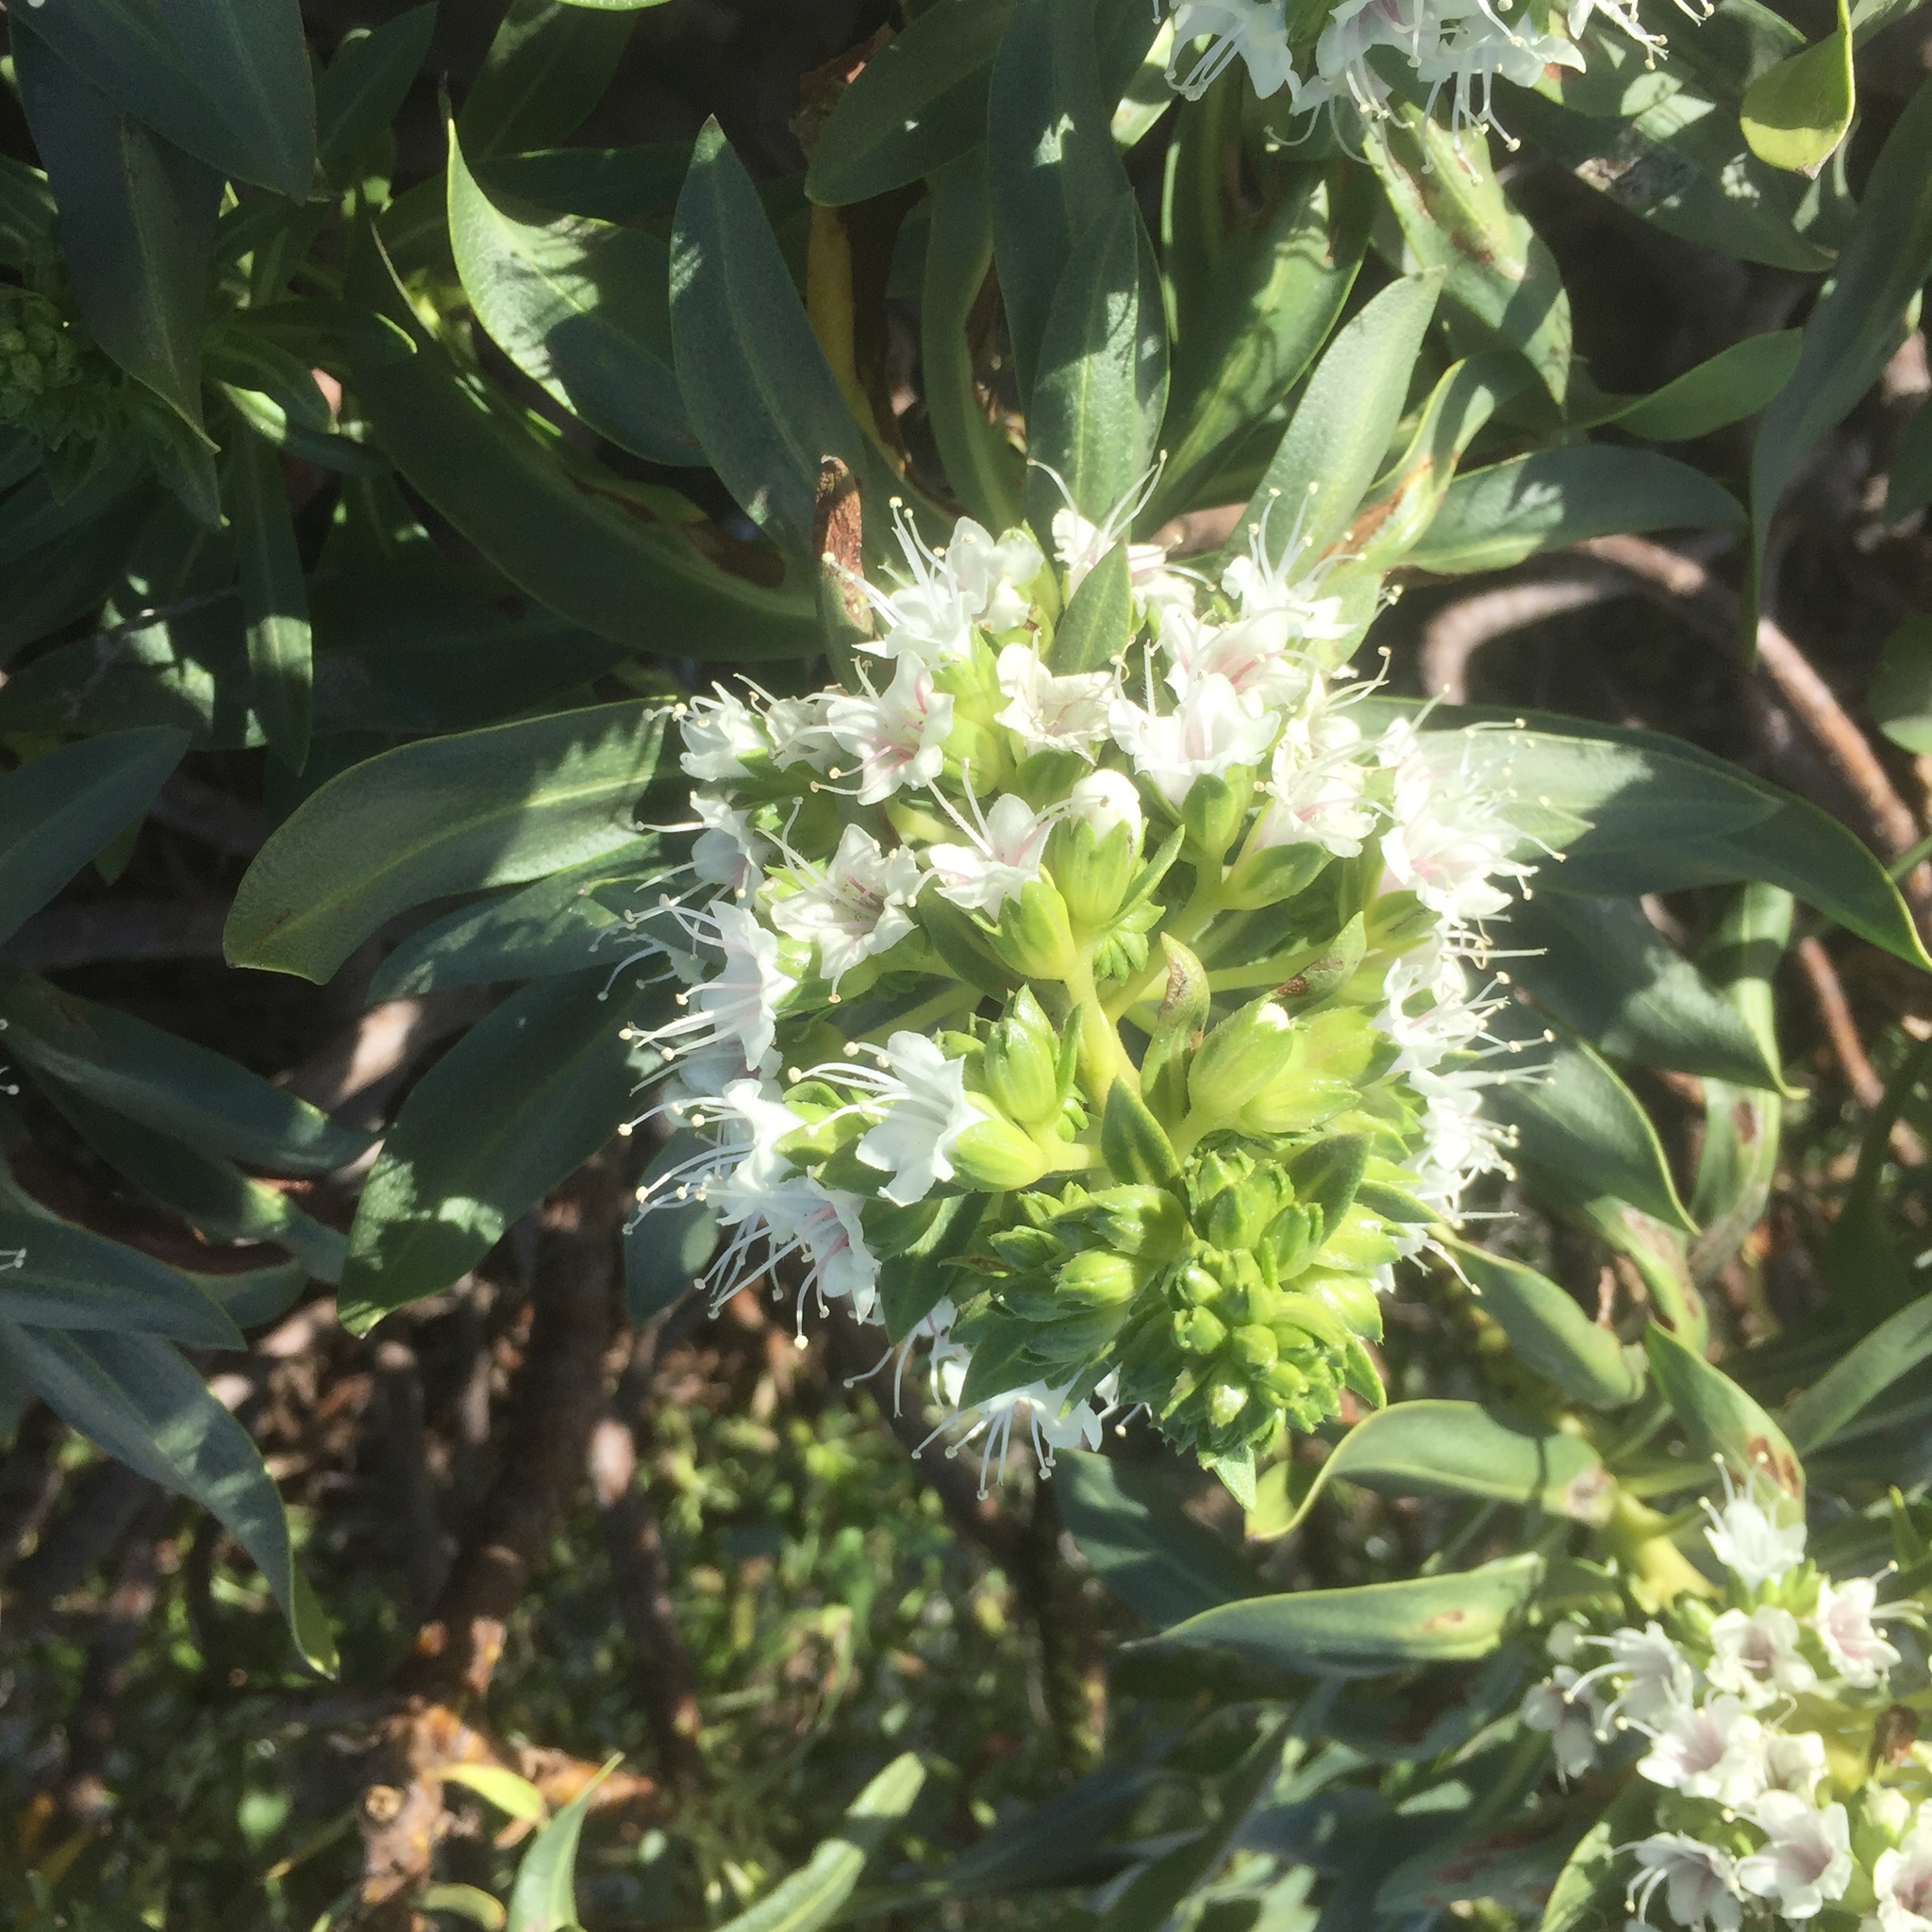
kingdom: Plantae
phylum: Tracheophyta
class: Magnoliopsida
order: Boraginales
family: Boraginaceae
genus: Echium
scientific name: Echium decaisnei
